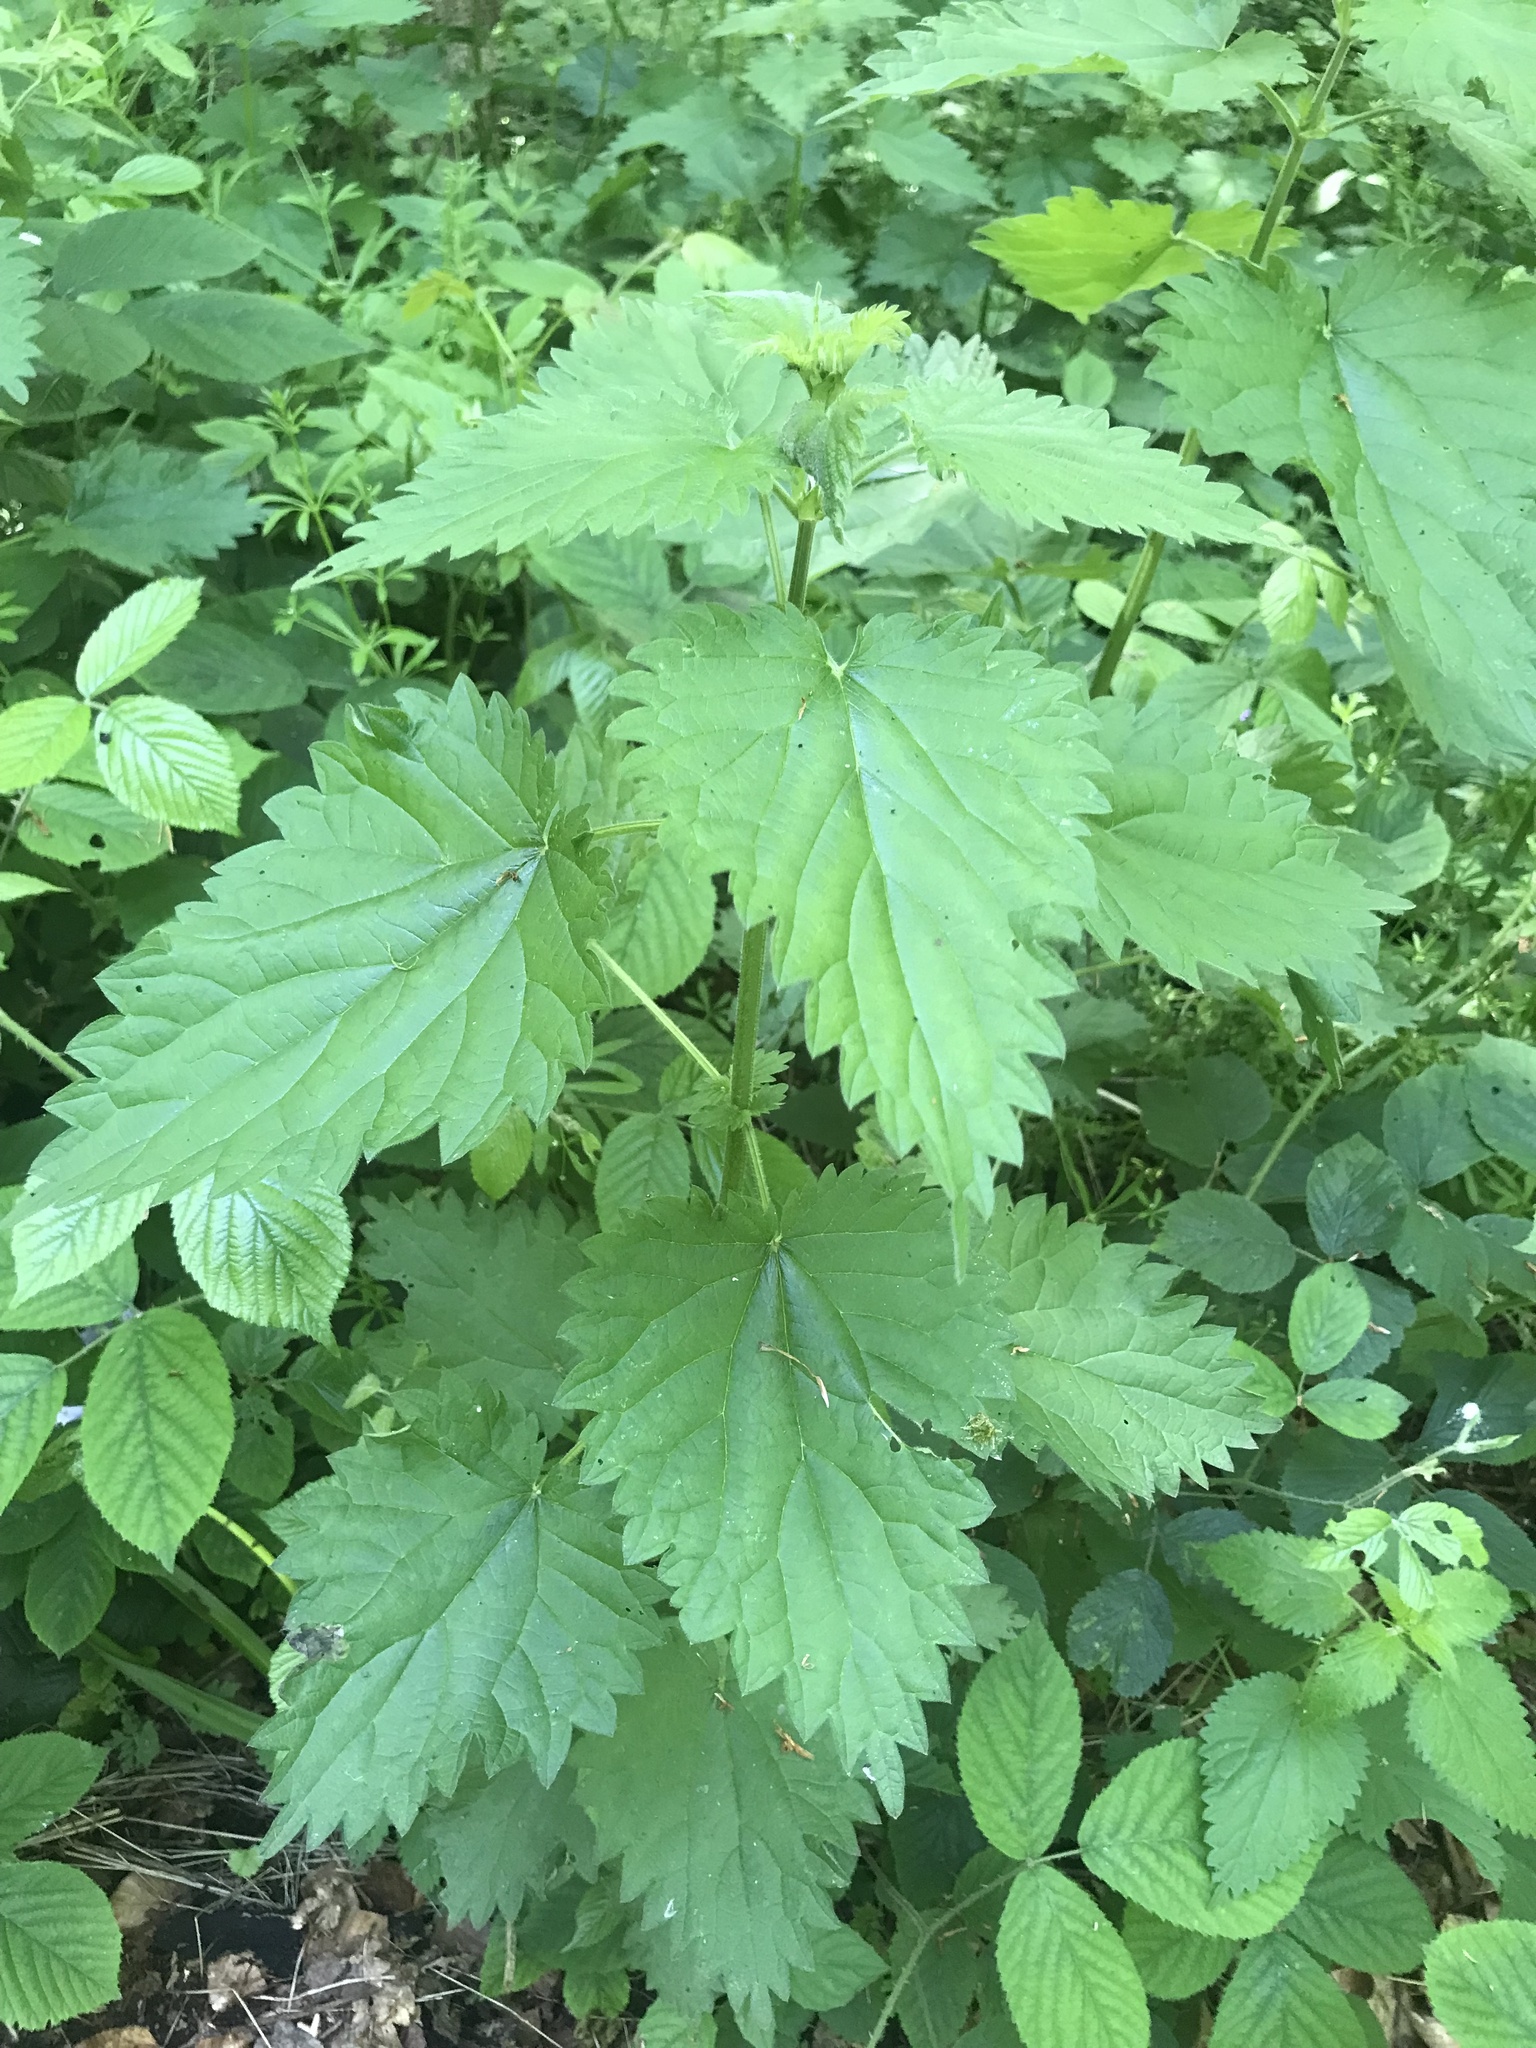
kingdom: Plantae
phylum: Tracheophyta
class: Magnoliopsida
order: Rosales
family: Urticaceae
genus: Urtica
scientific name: Urtica dioica
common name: Common nettle
